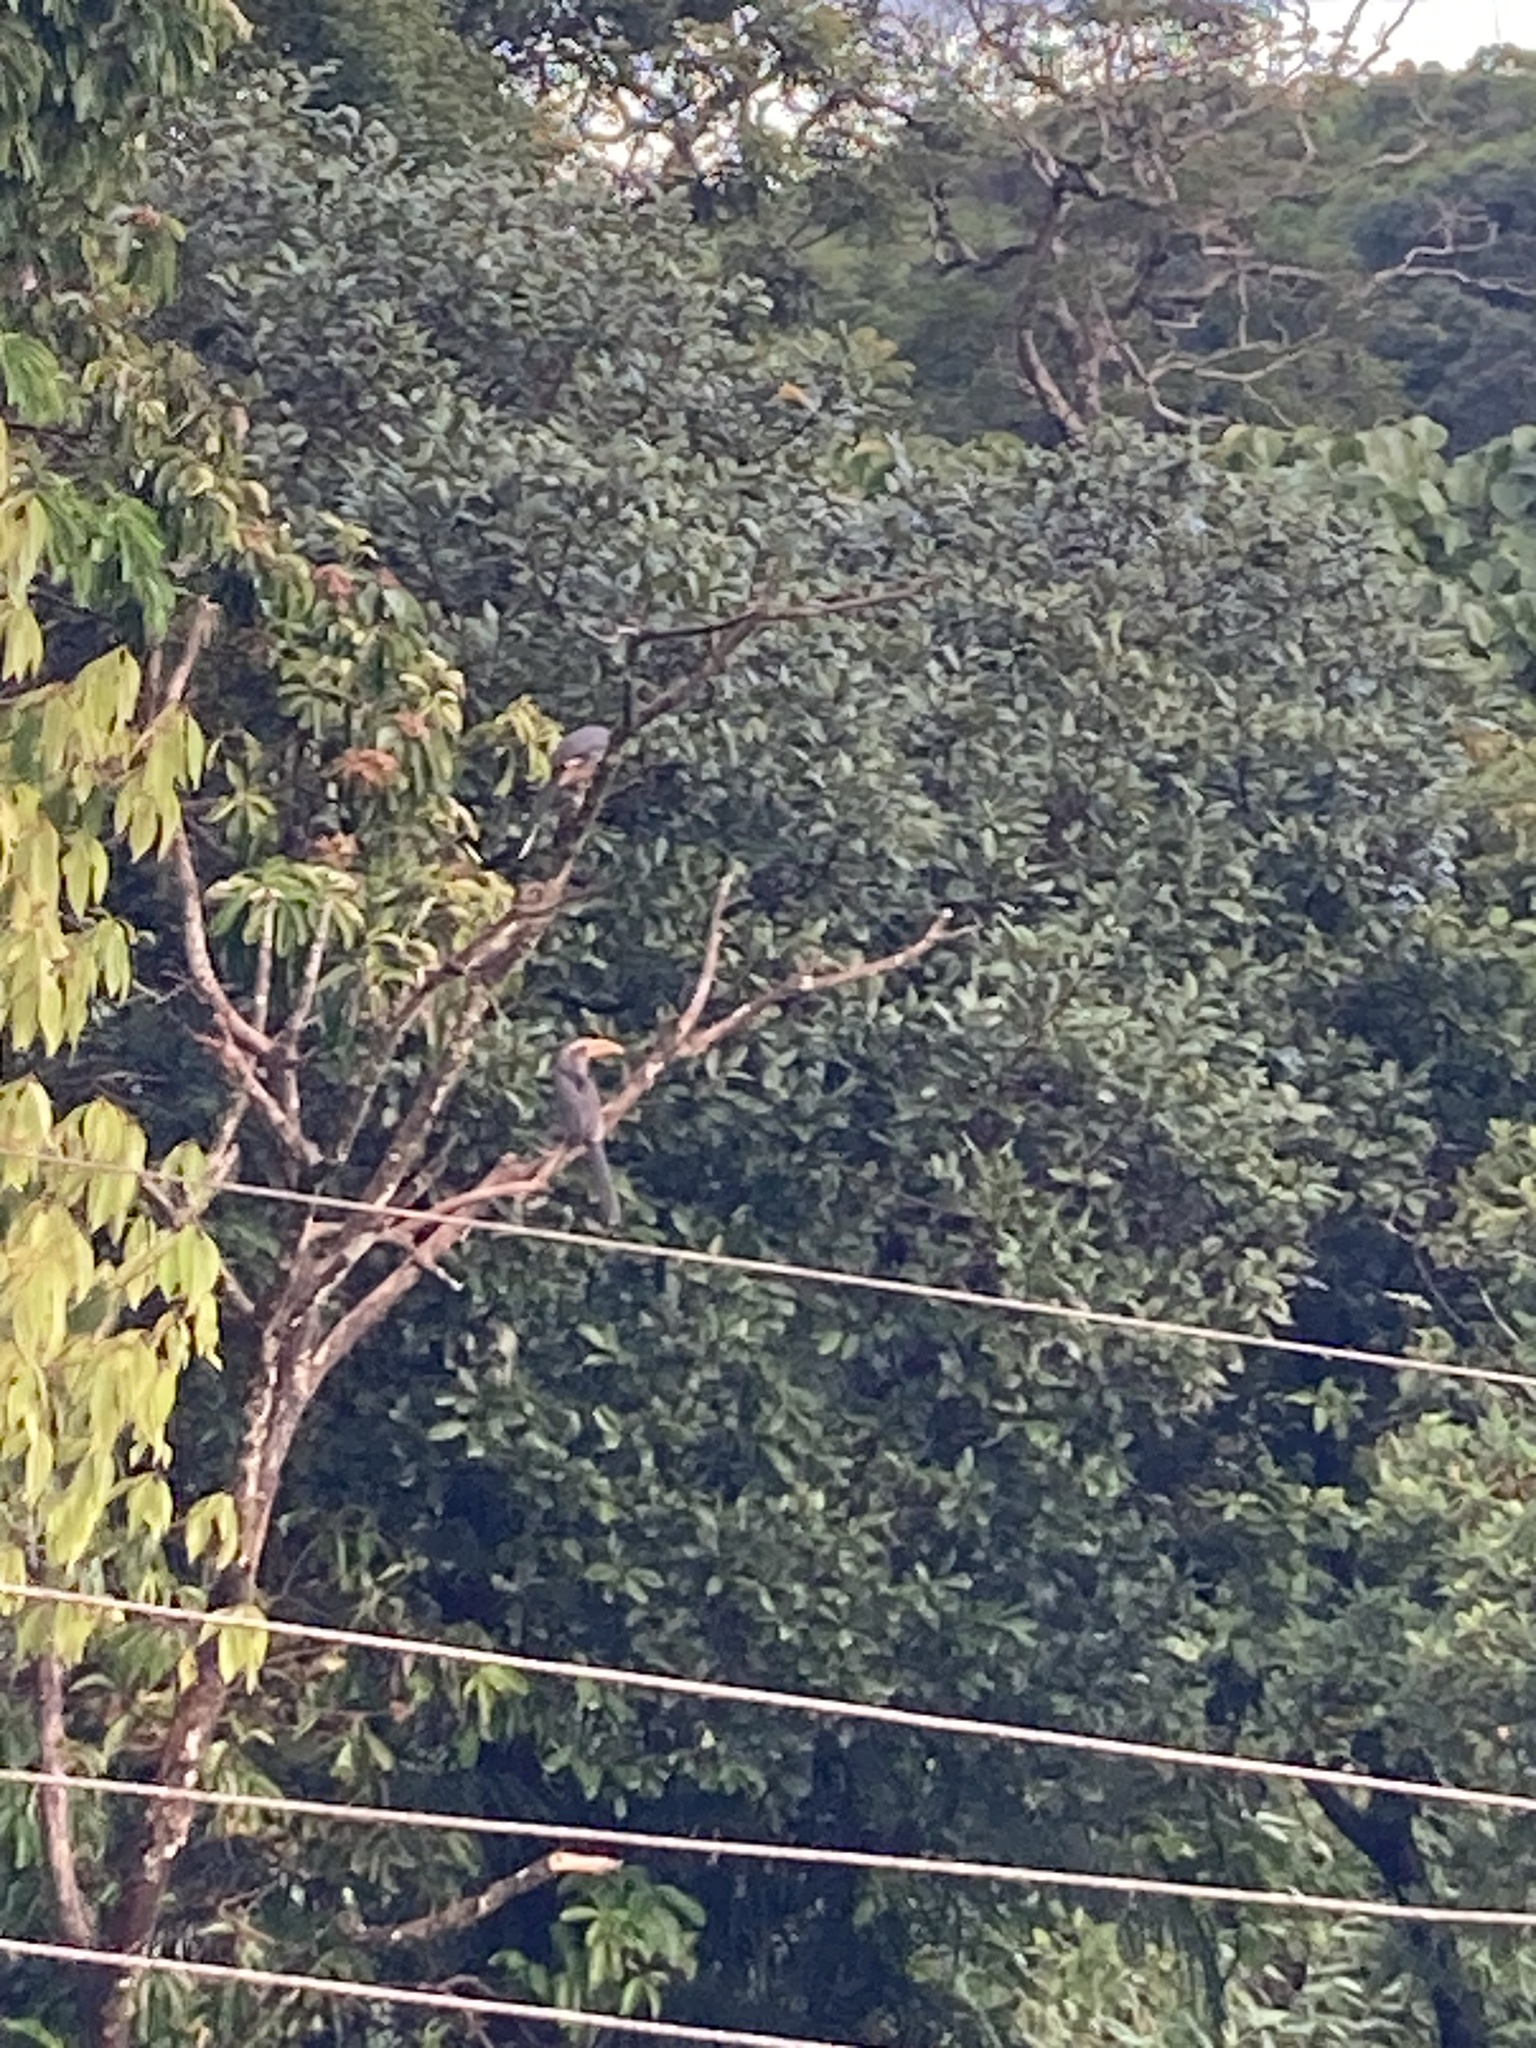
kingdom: Animalia
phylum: Chordata
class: Aves
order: Bucerotiformes
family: Bucerotidae
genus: Ocyceros
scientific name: Ocyceros griseus
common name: Malabar grey hornbill
